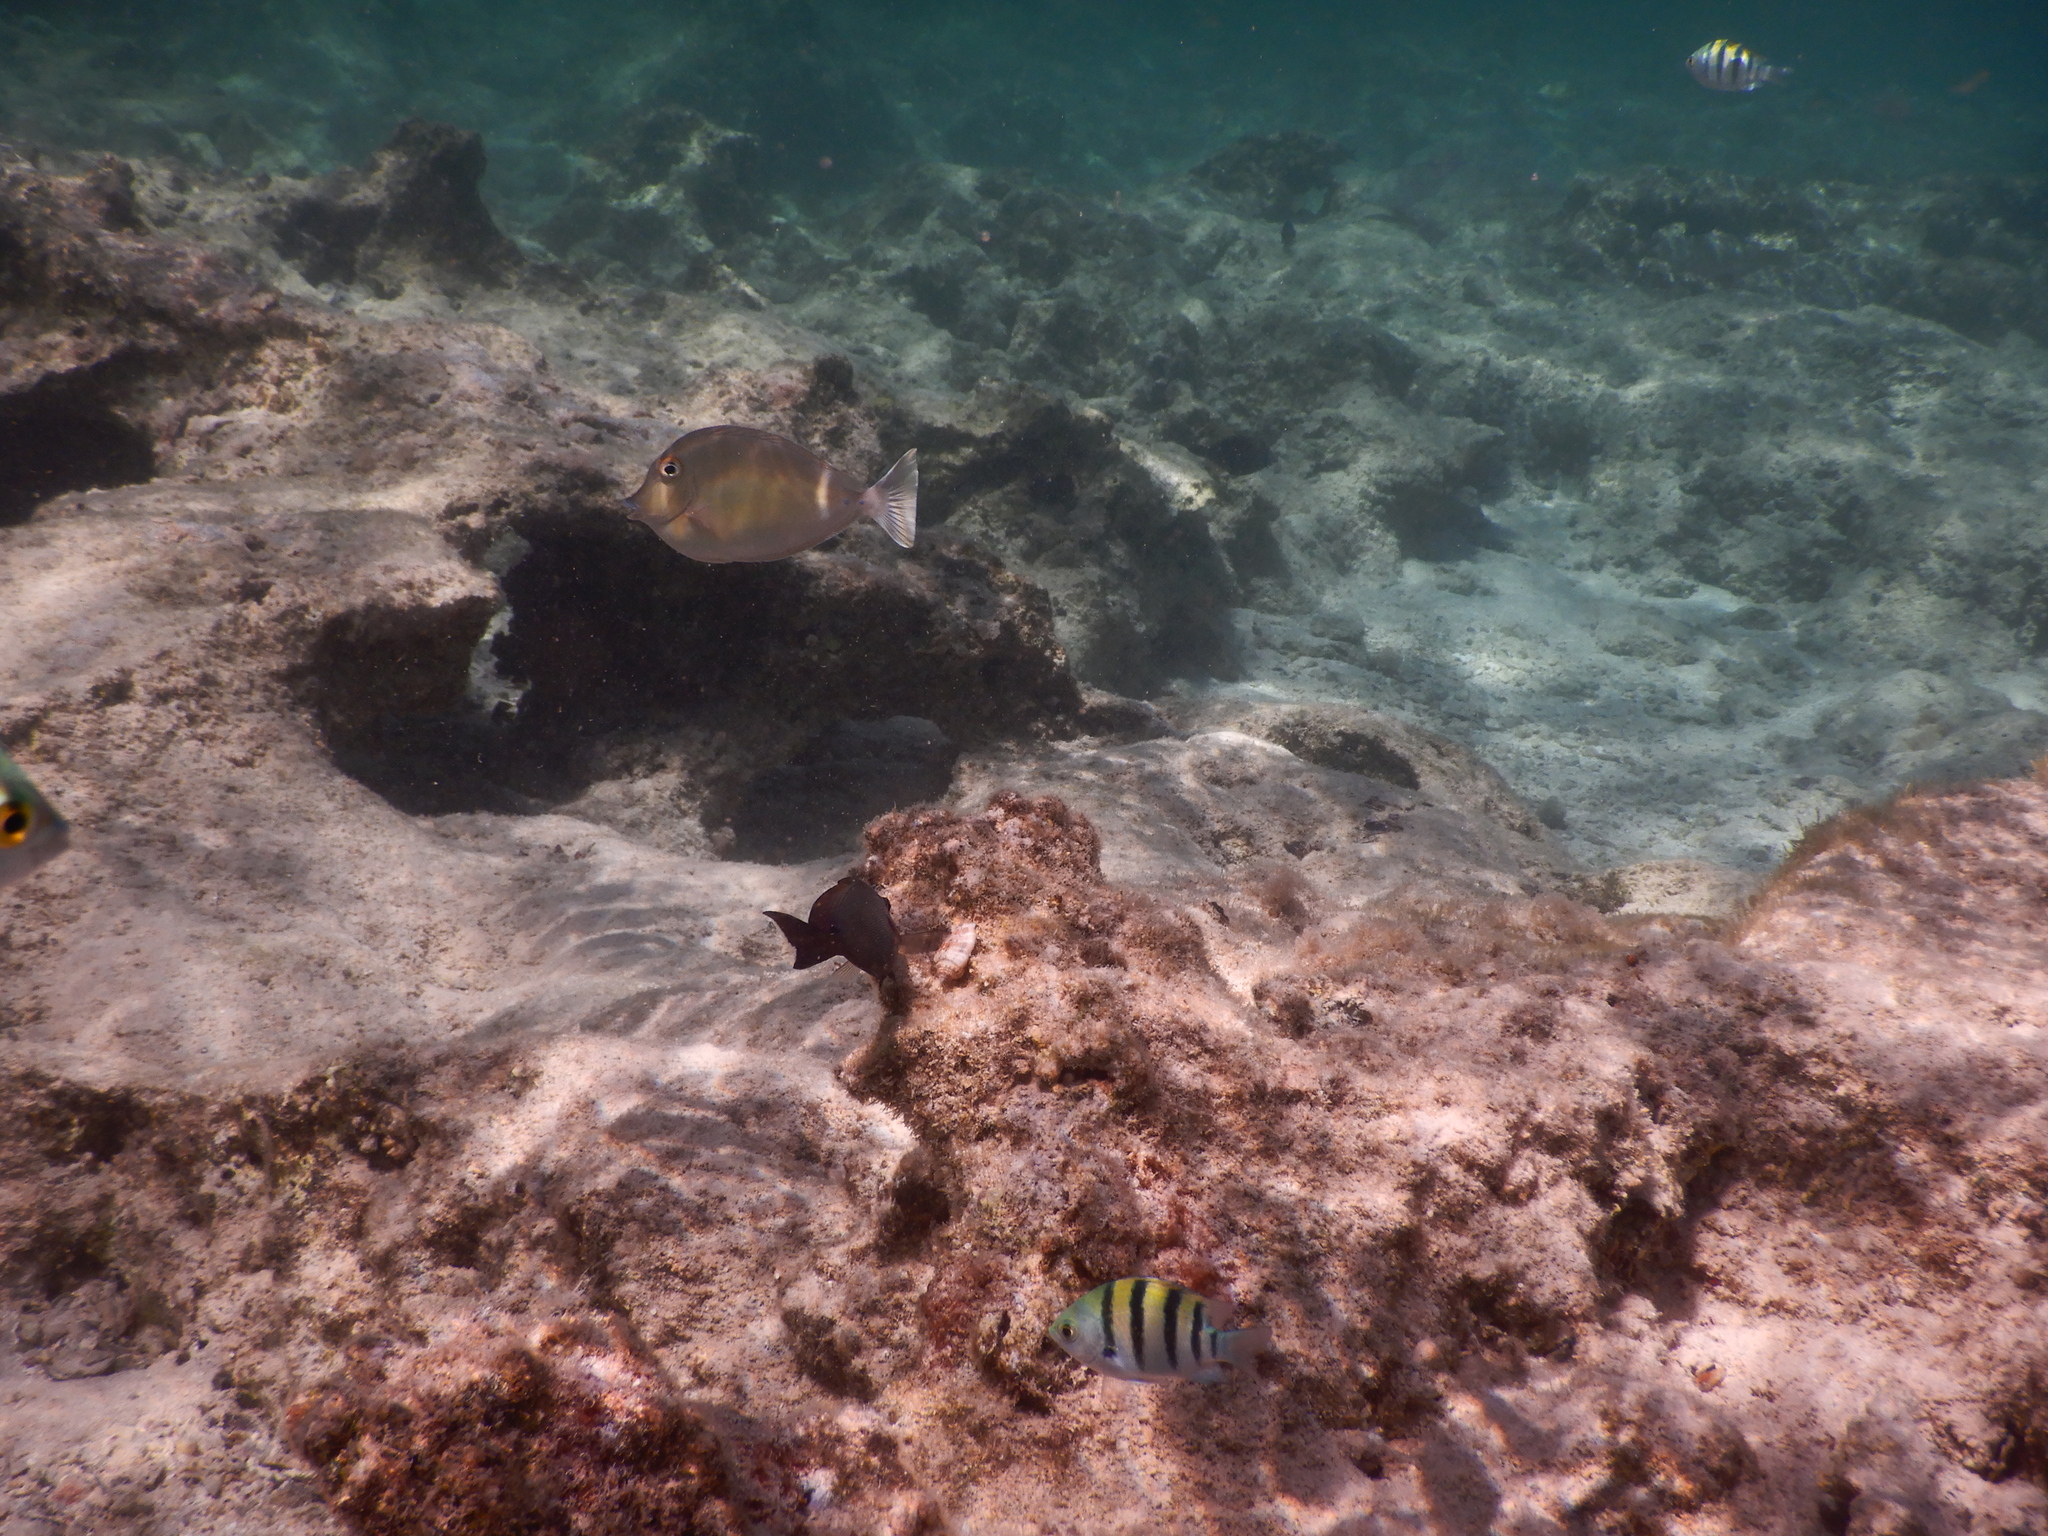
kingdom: Animalia
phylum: Chordata
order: Perciformes
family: Pomacentridae
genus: Abudefduf
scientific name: Abudefduf vaigiensis
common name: Indo-pacific sergeant
